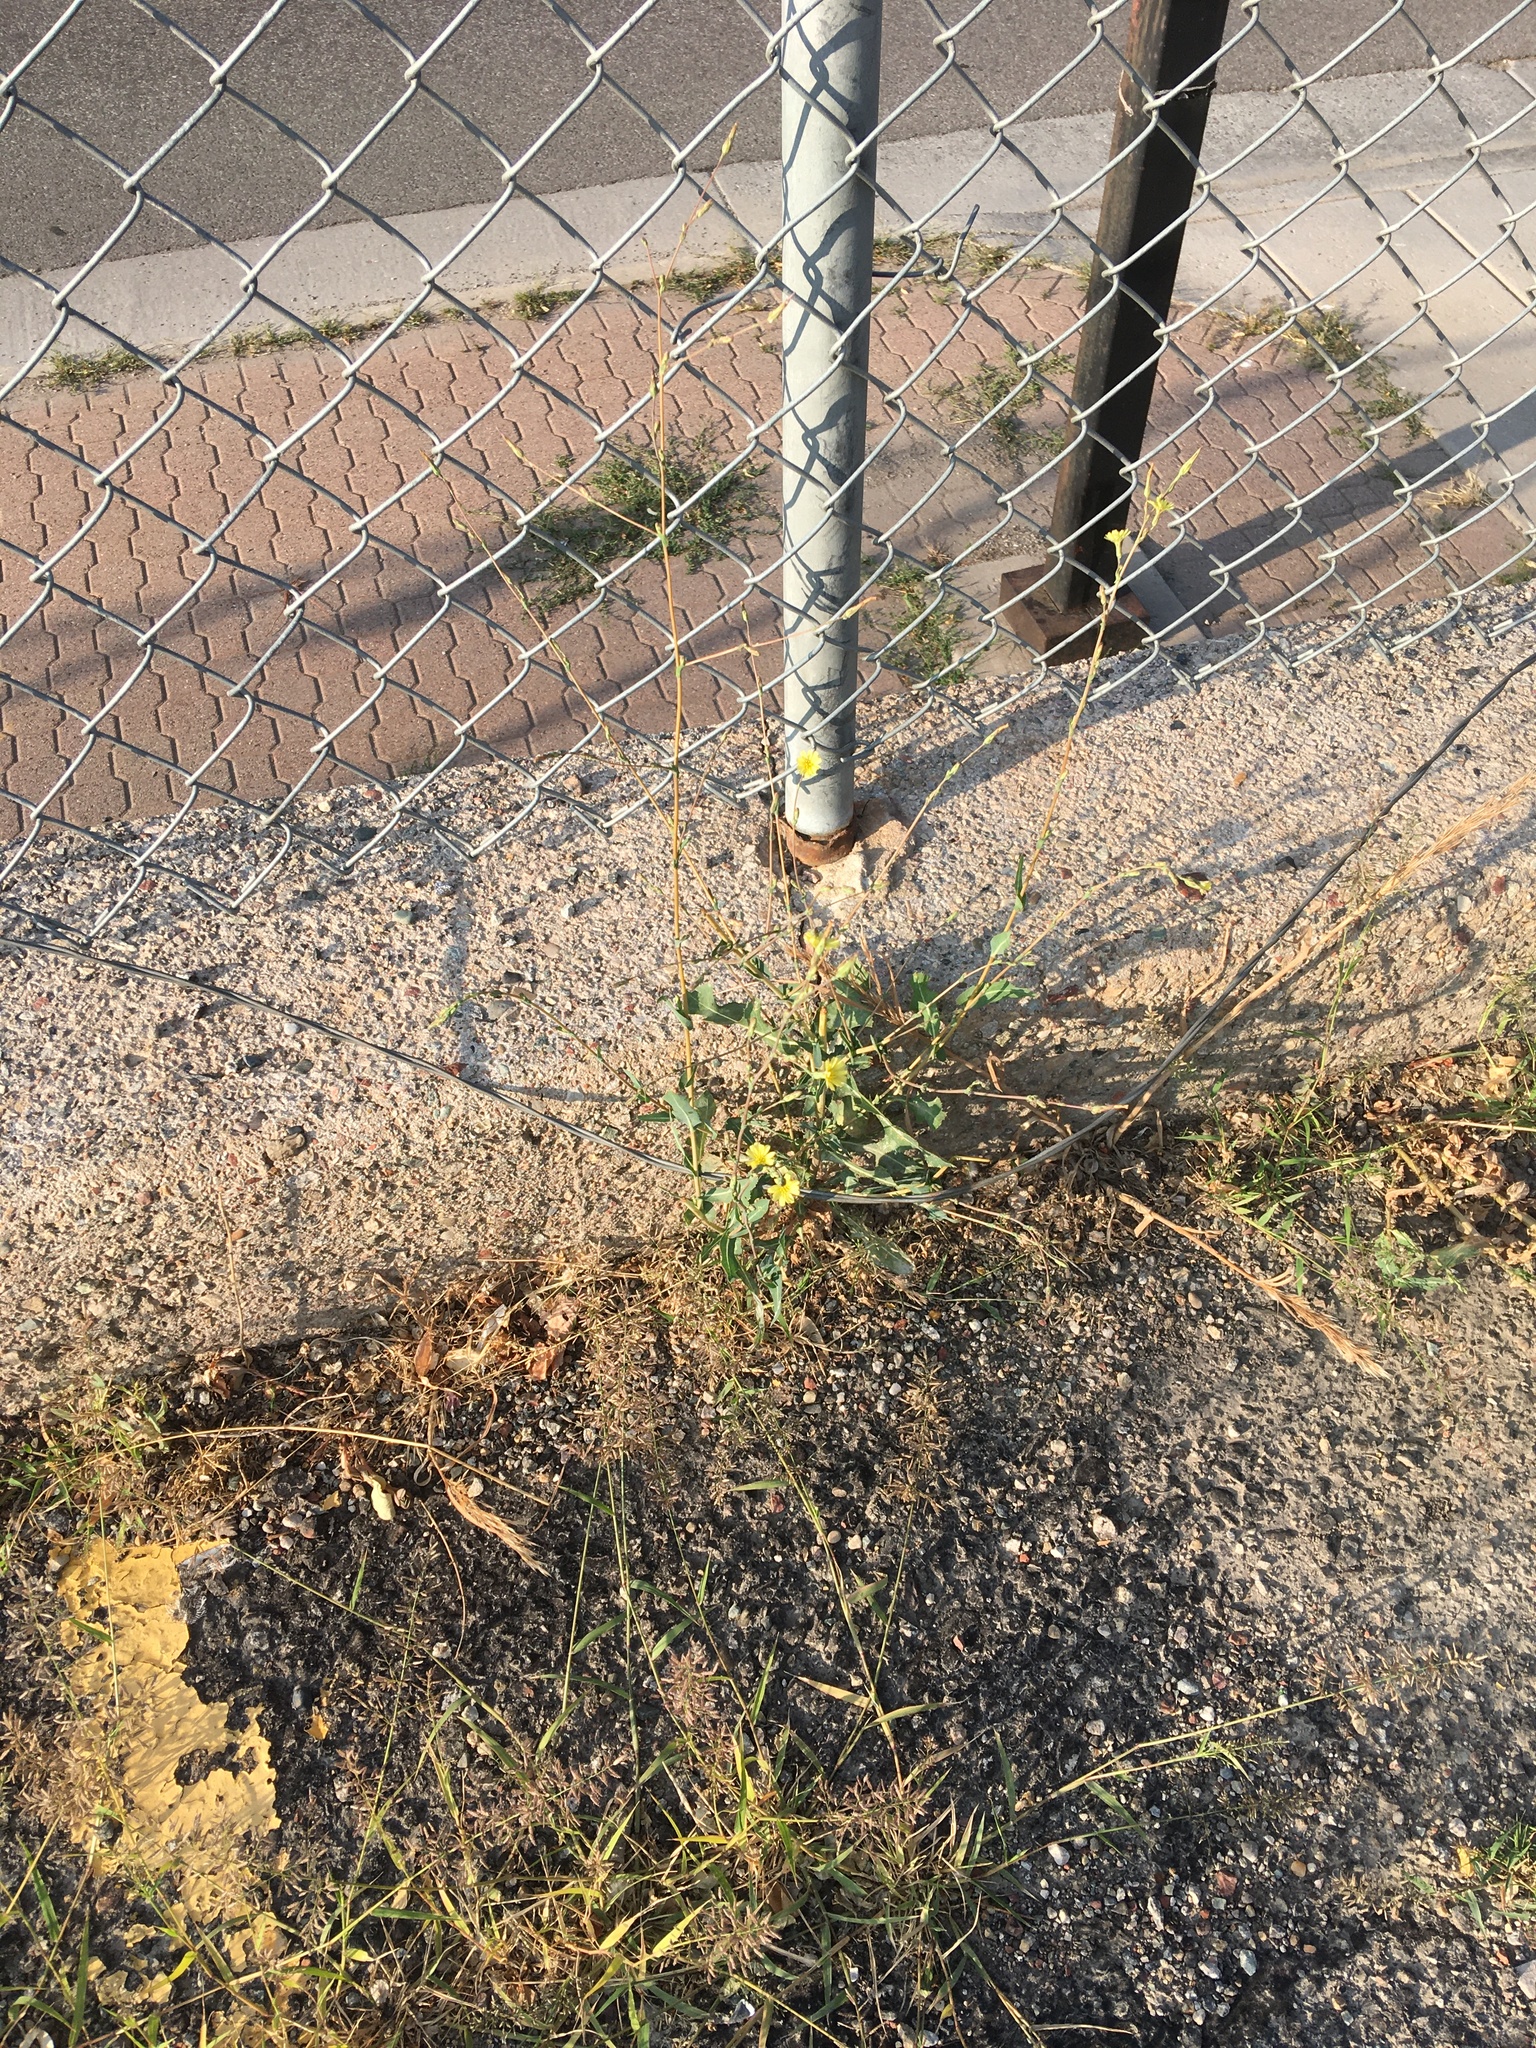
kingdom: Plantae
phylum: Tracheophyta
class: Magnoliopsida
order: Asterales
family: Asteraceae
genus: Lactuca
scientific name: Lactuca serriola
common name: Prickly lettuce
